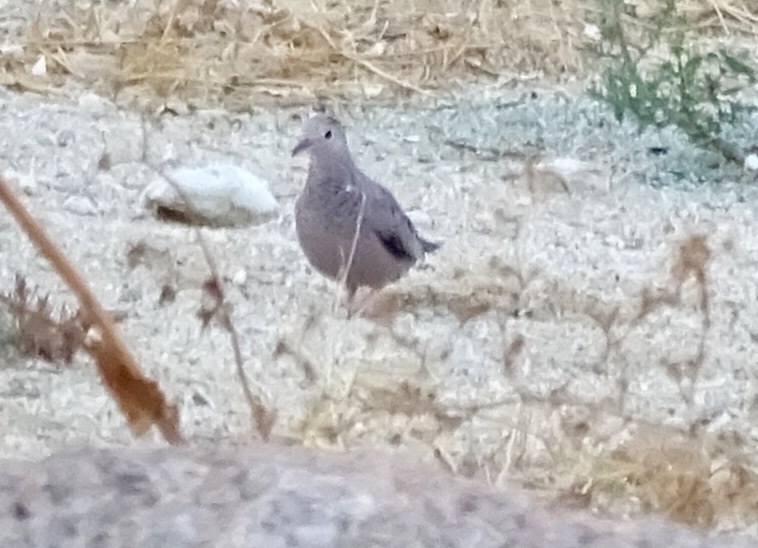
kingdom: Animalia
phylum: Chordata
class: Aves
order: Columbiformes
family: Columbidae
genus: Columbina
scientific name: Columbina passerina
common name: Common ground-dove
